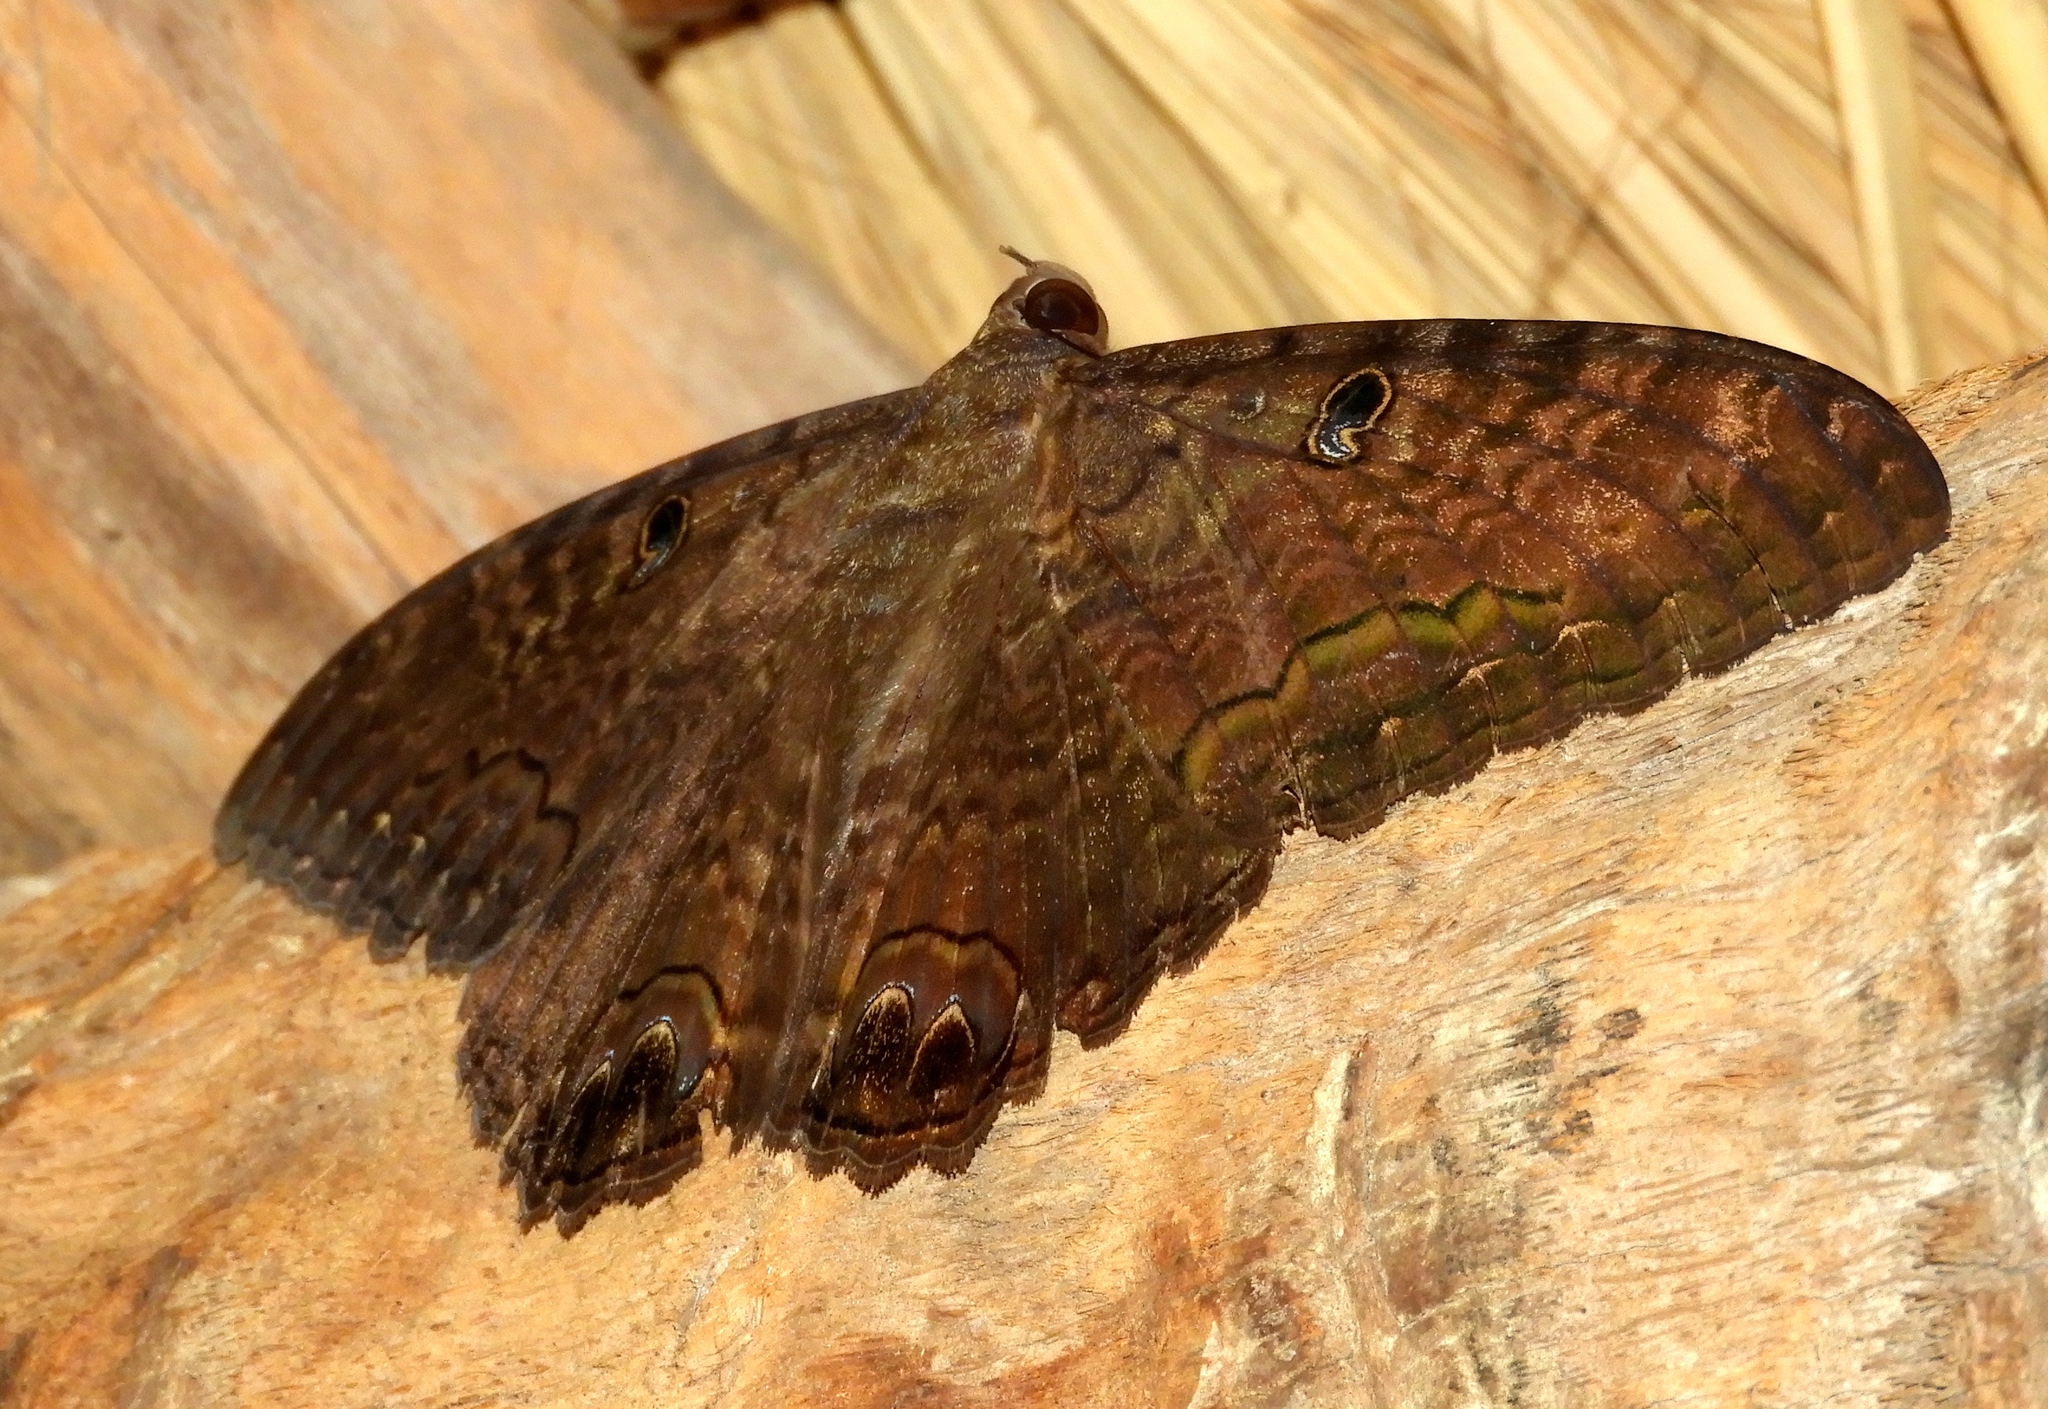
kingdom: Animalia
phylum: Arthropoda
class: Insecta
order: Lepidoptera
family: Erebidae
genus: Ascalapha
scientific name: Ascalapha odorata
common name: Black witch
